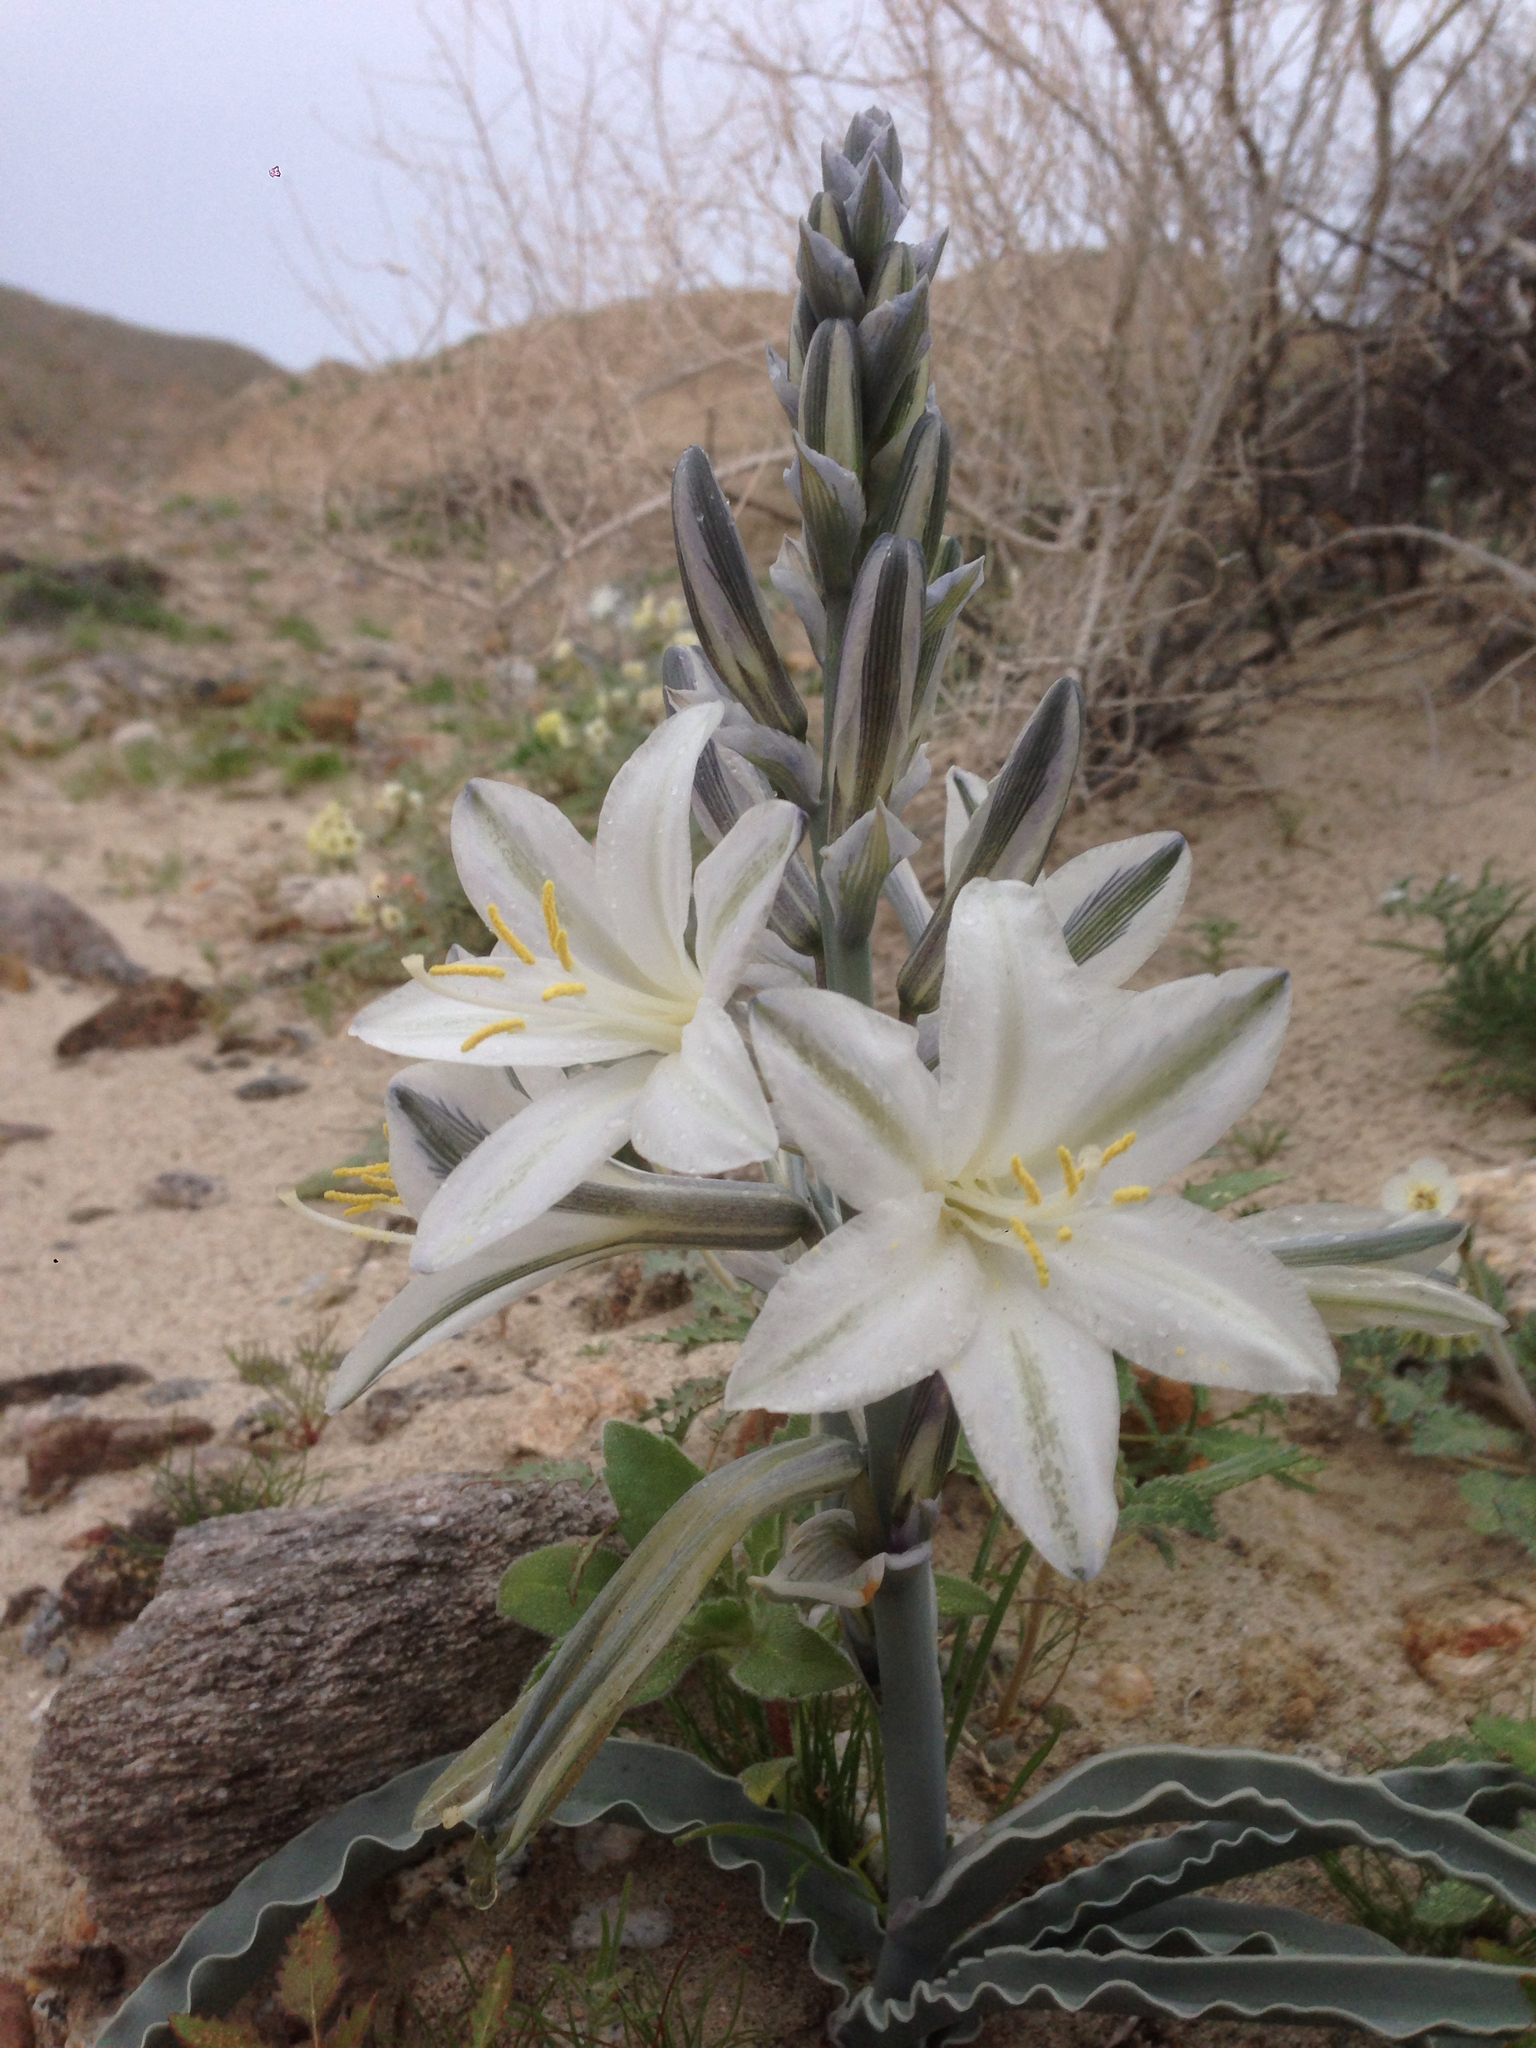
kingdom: Plantae
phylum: Tracheophyta
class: Liliopsida
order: Asparagales
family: Asparagaceae
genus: Hesperocallis
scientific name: Hesperocallis undulata
